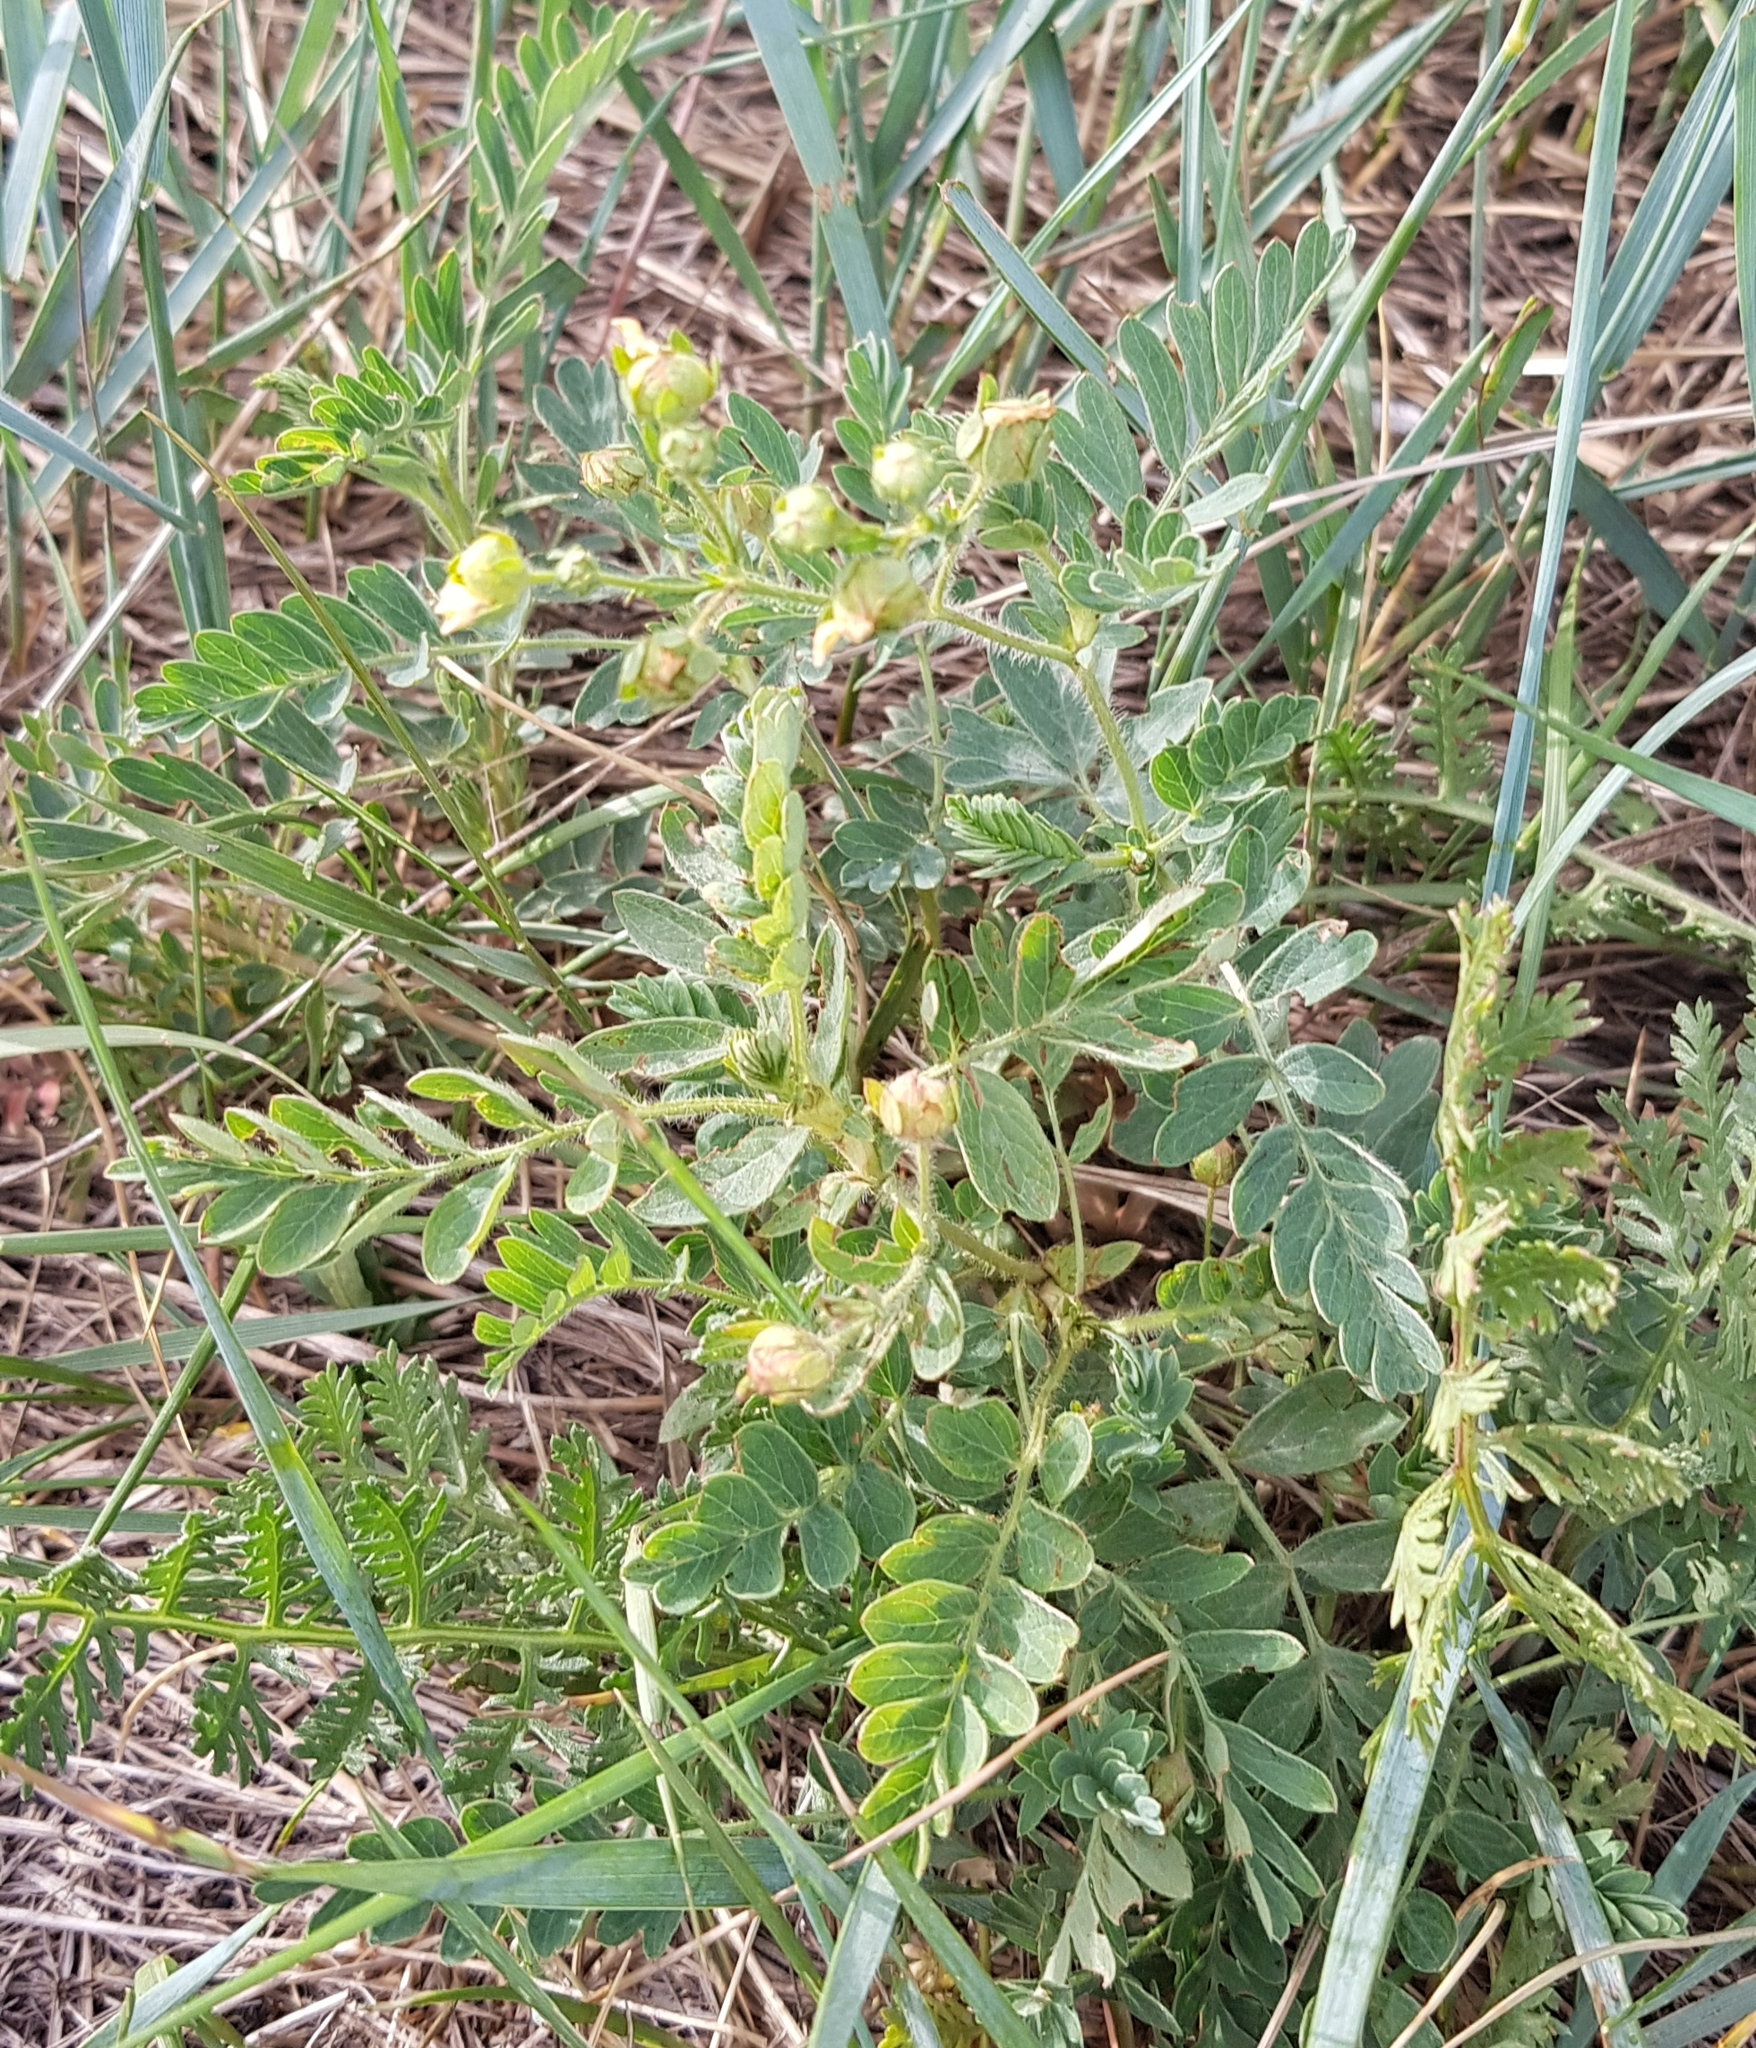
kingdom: Plantae
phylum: Tracheophyta
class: Magnoliopsida
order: Rosales
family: Rosaceae
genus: Sibbaldianthe
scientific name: Sibbaldianthe bifurca
